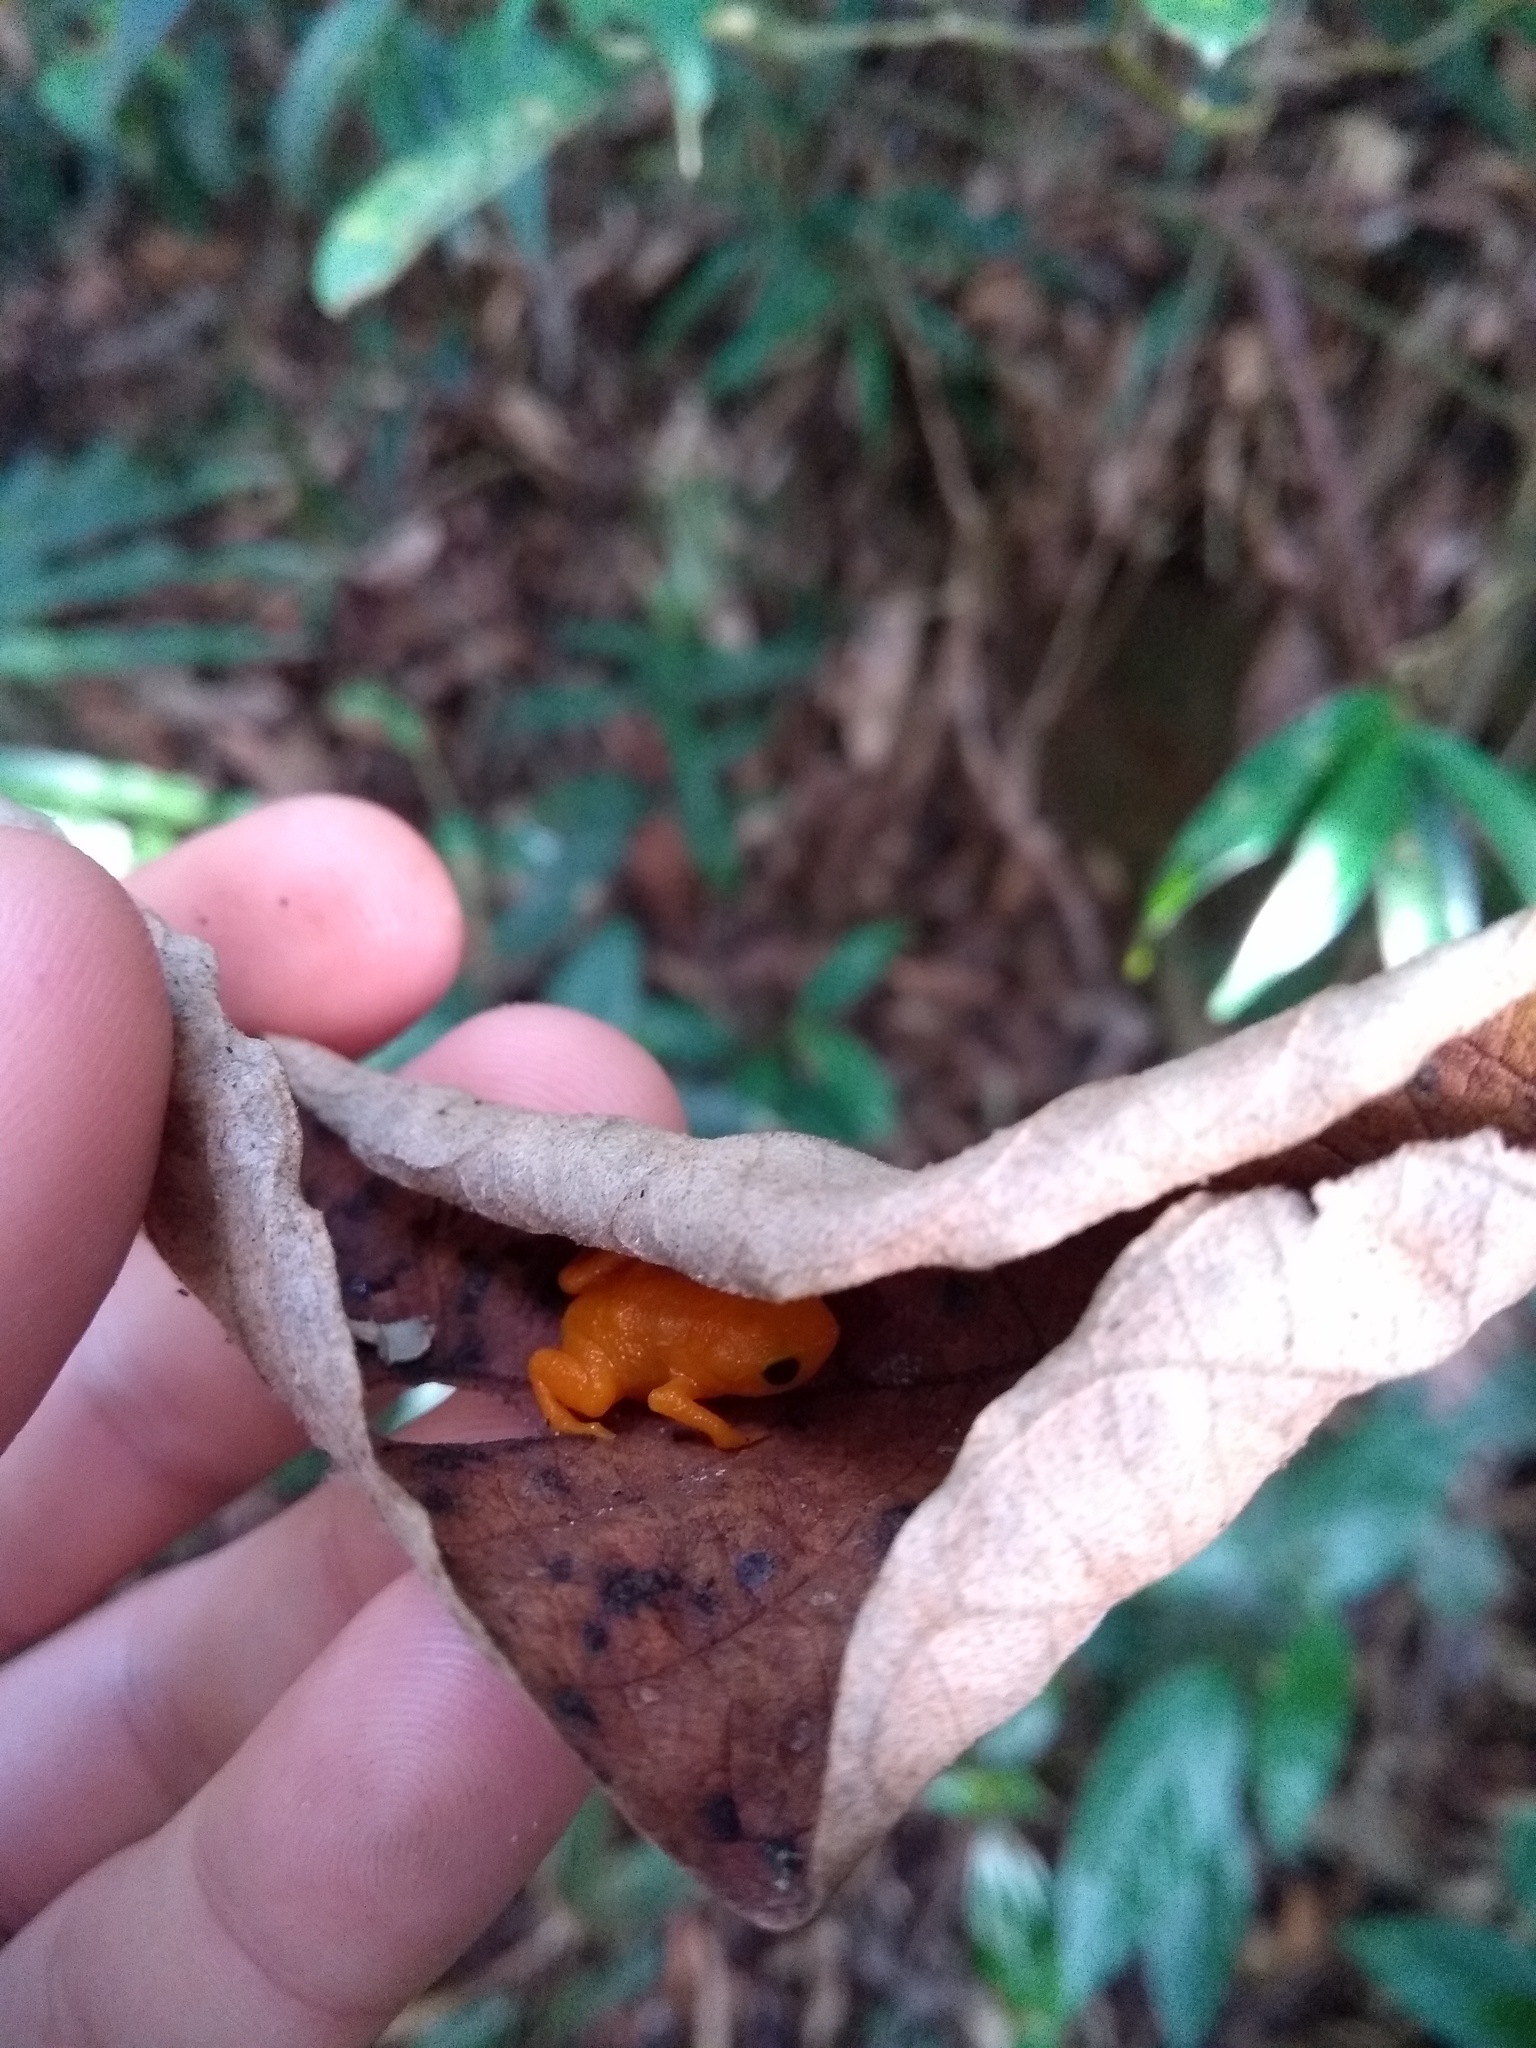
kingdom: Animalia
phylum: Chordata
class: Amphibia
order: Anura
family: Brachycephalidae
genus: Brachycephalus
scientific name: Brachycephalus ephippium
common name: Pumpkin toadlet
